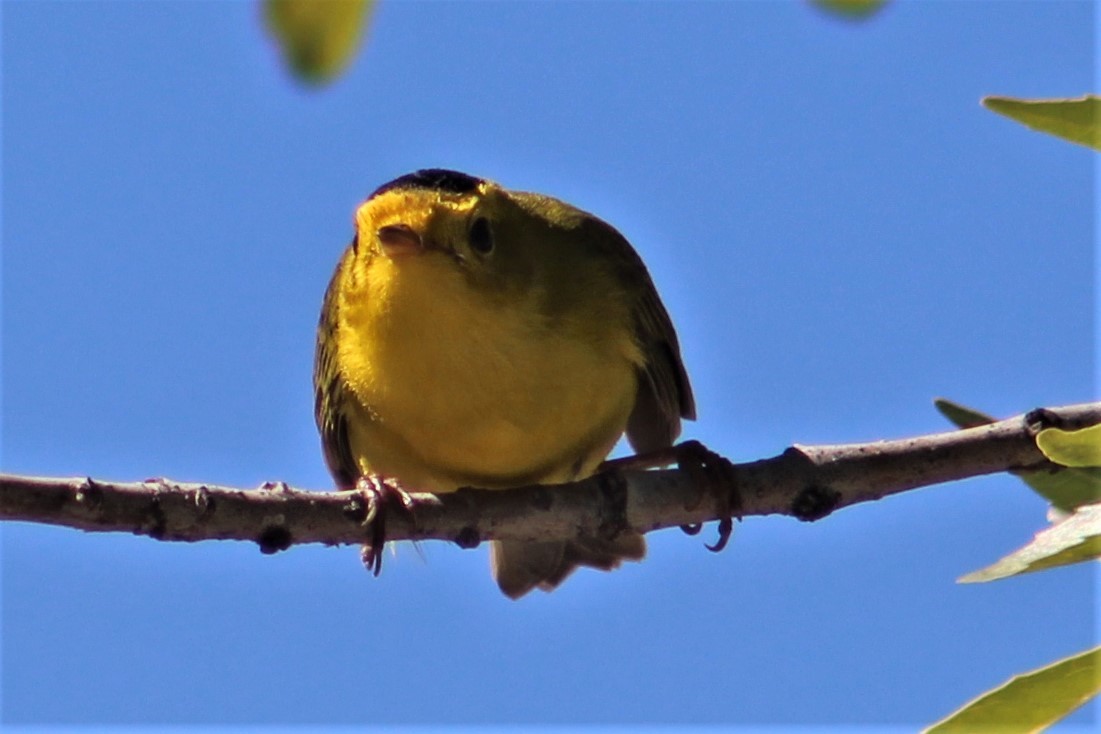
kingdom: Animalia
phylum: Chordata
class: Aves
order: Passeriformes
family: Parulidae
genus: Cardellina
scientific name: Cardellina pusilla
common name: Wilson's warbler
